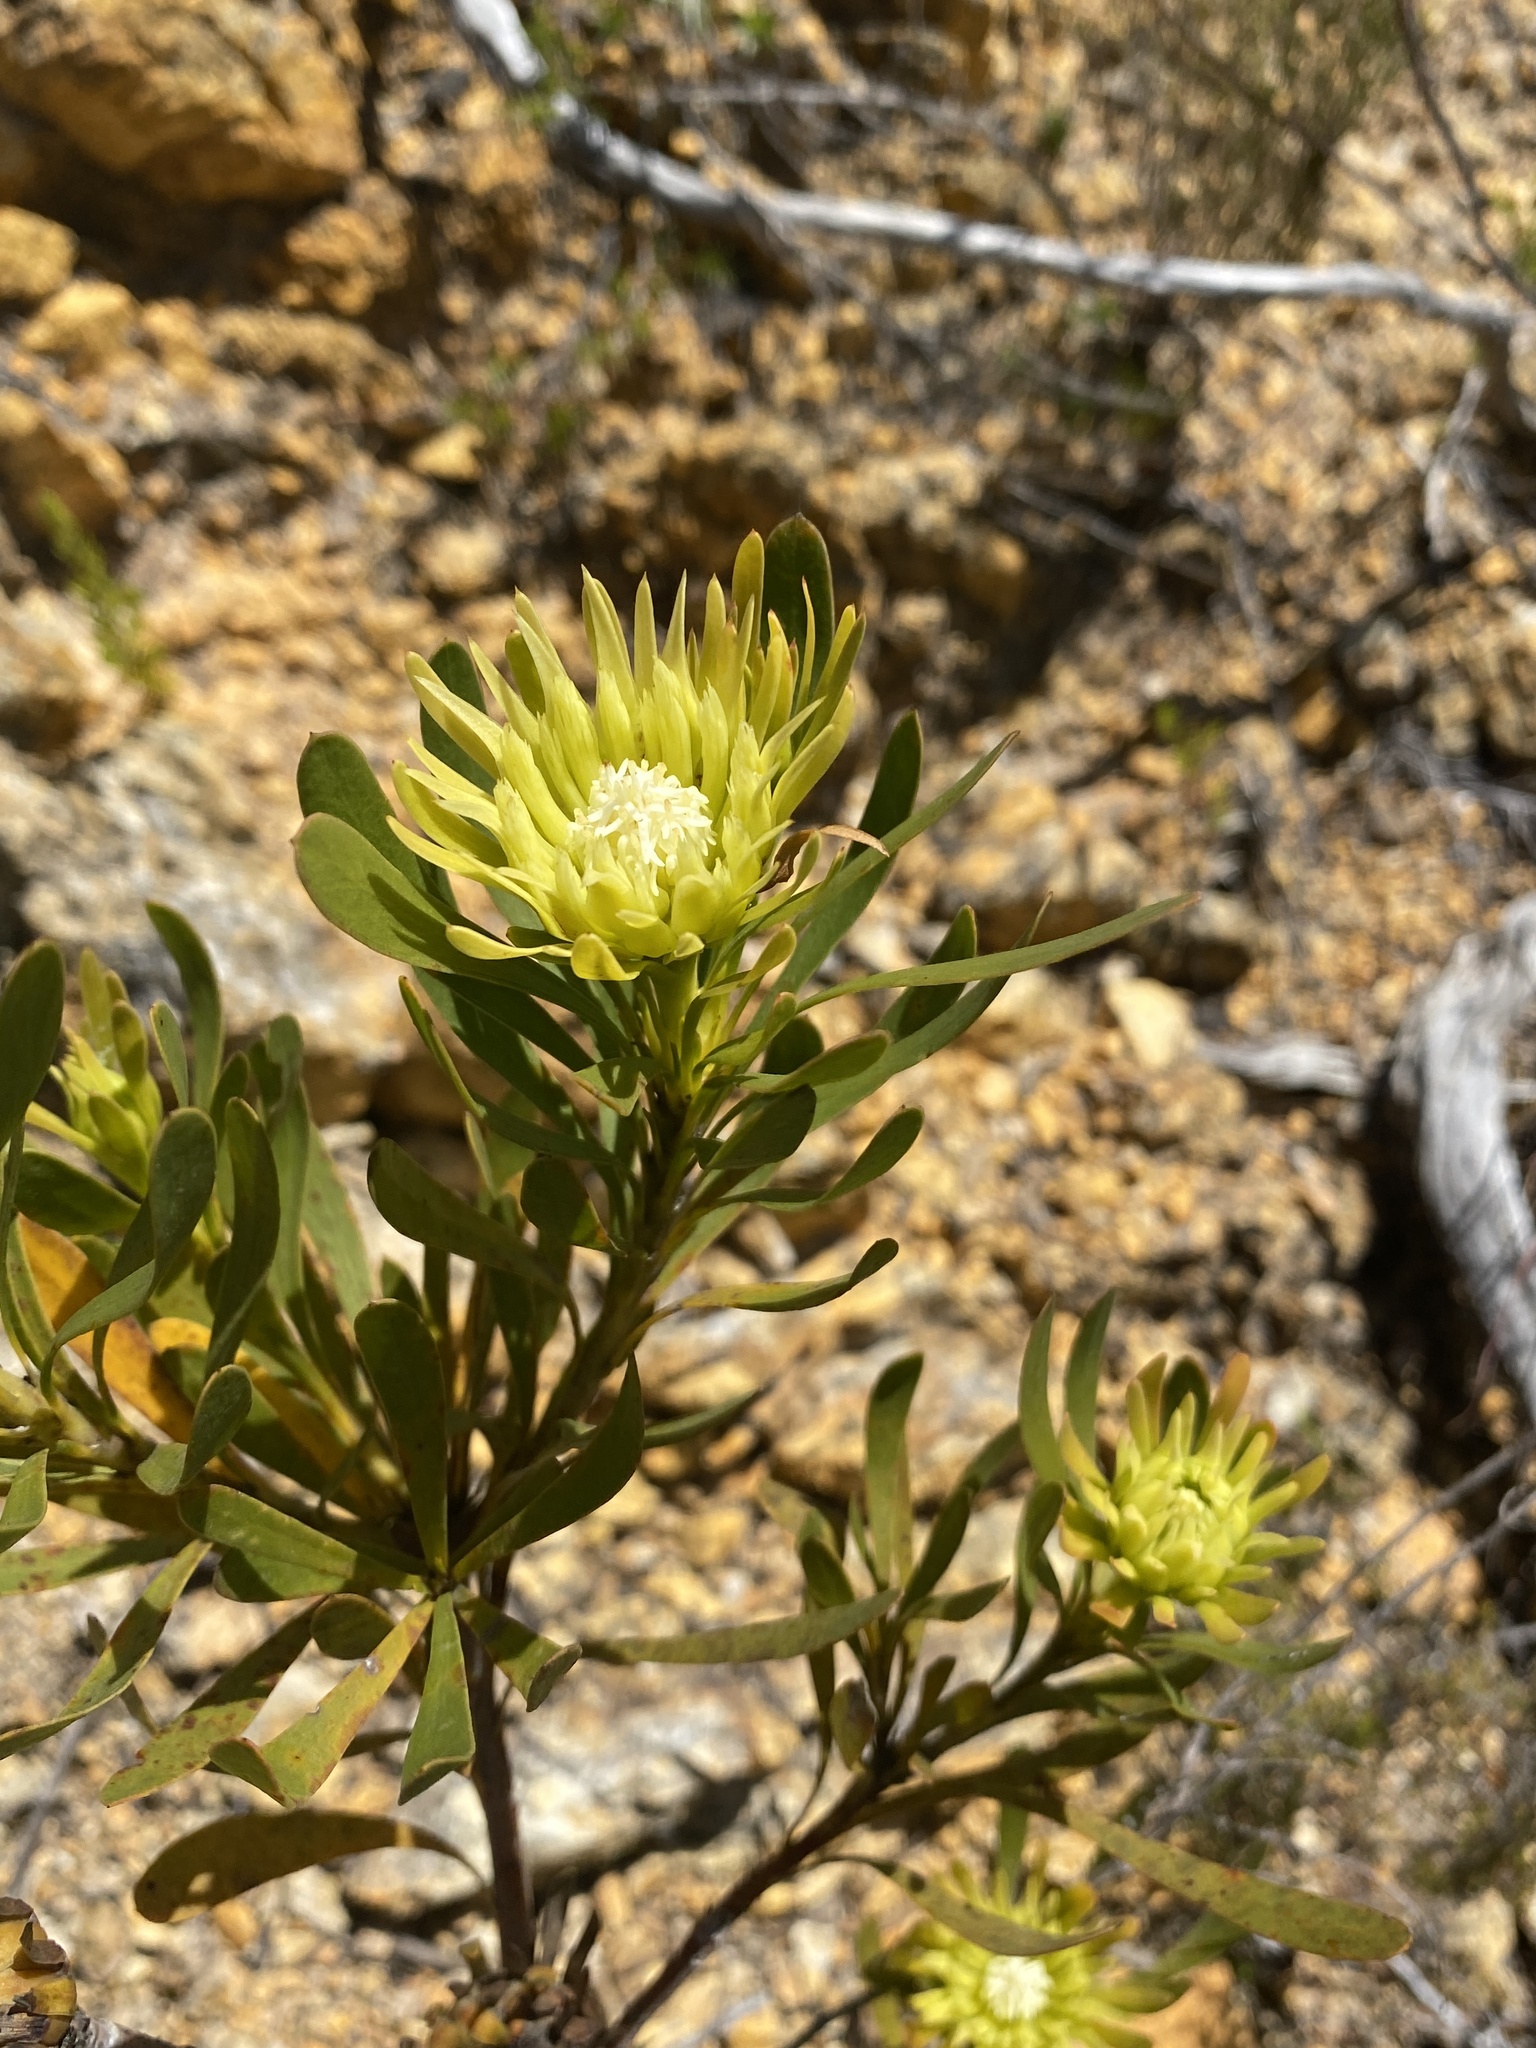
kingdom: Plantae
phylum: Tracheophyta
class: Magnoliopsida
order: Proteales
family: Proteaceae
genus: Aulax
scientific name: Aulax umbellata
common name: Broad-leaf featherbush
